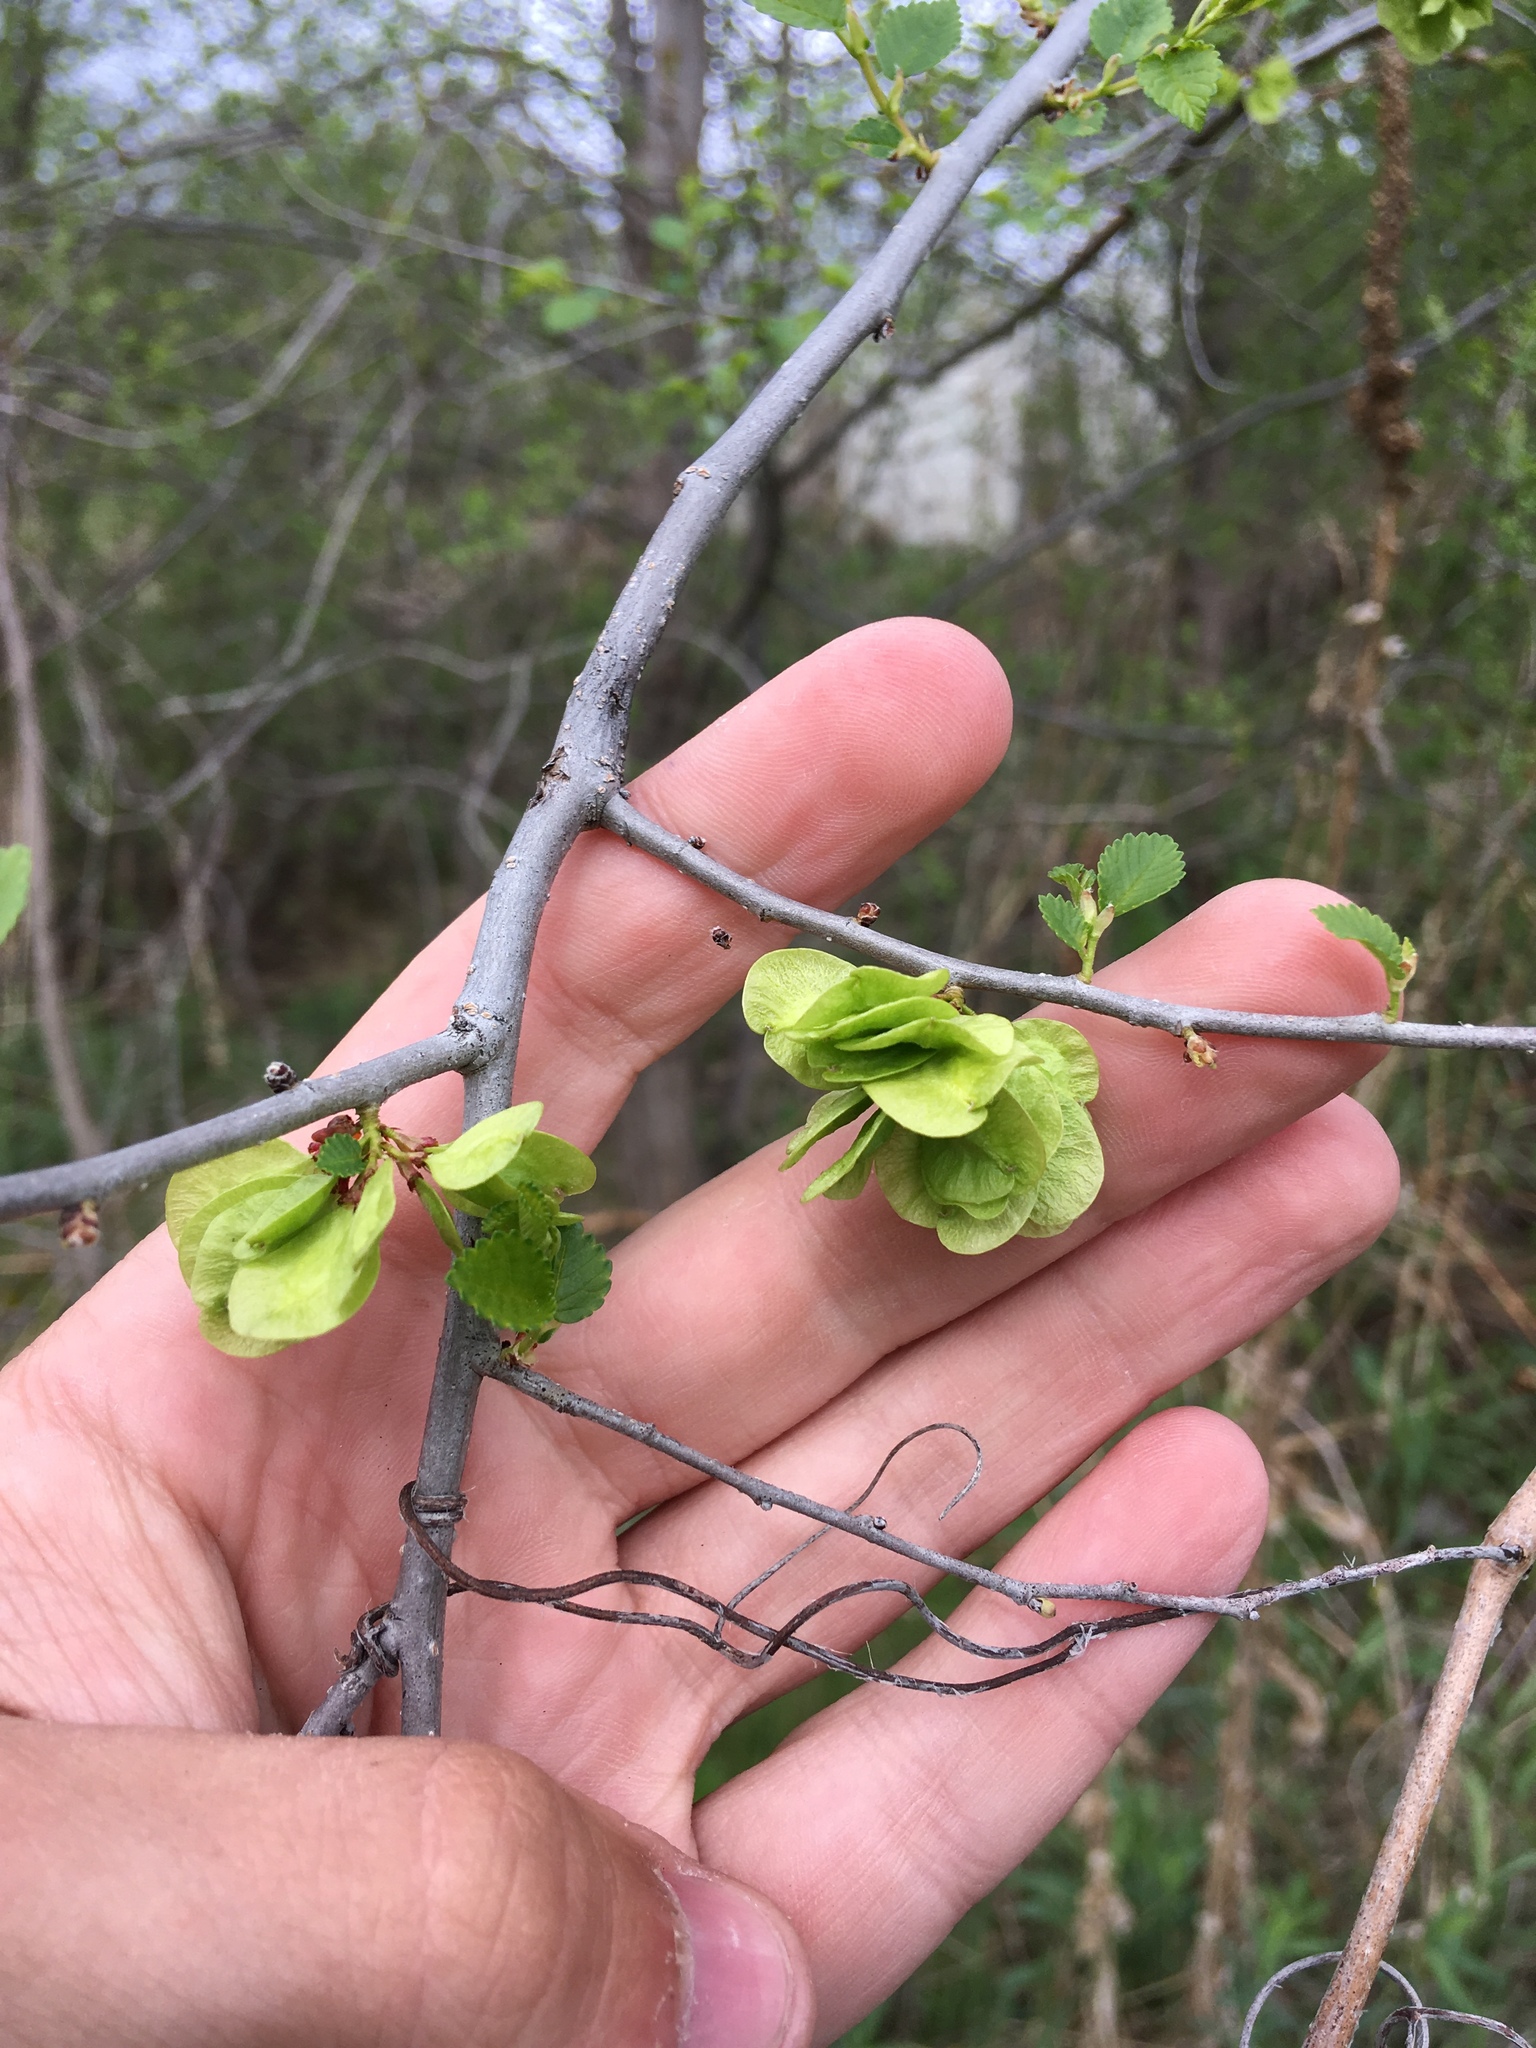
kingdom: Plantae
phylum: Tracheophyta
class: Magnoliopsida
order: Rosales
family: Ulmaceae
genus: Ulmus
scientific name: Ulmus pumila
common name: Siberian elm
